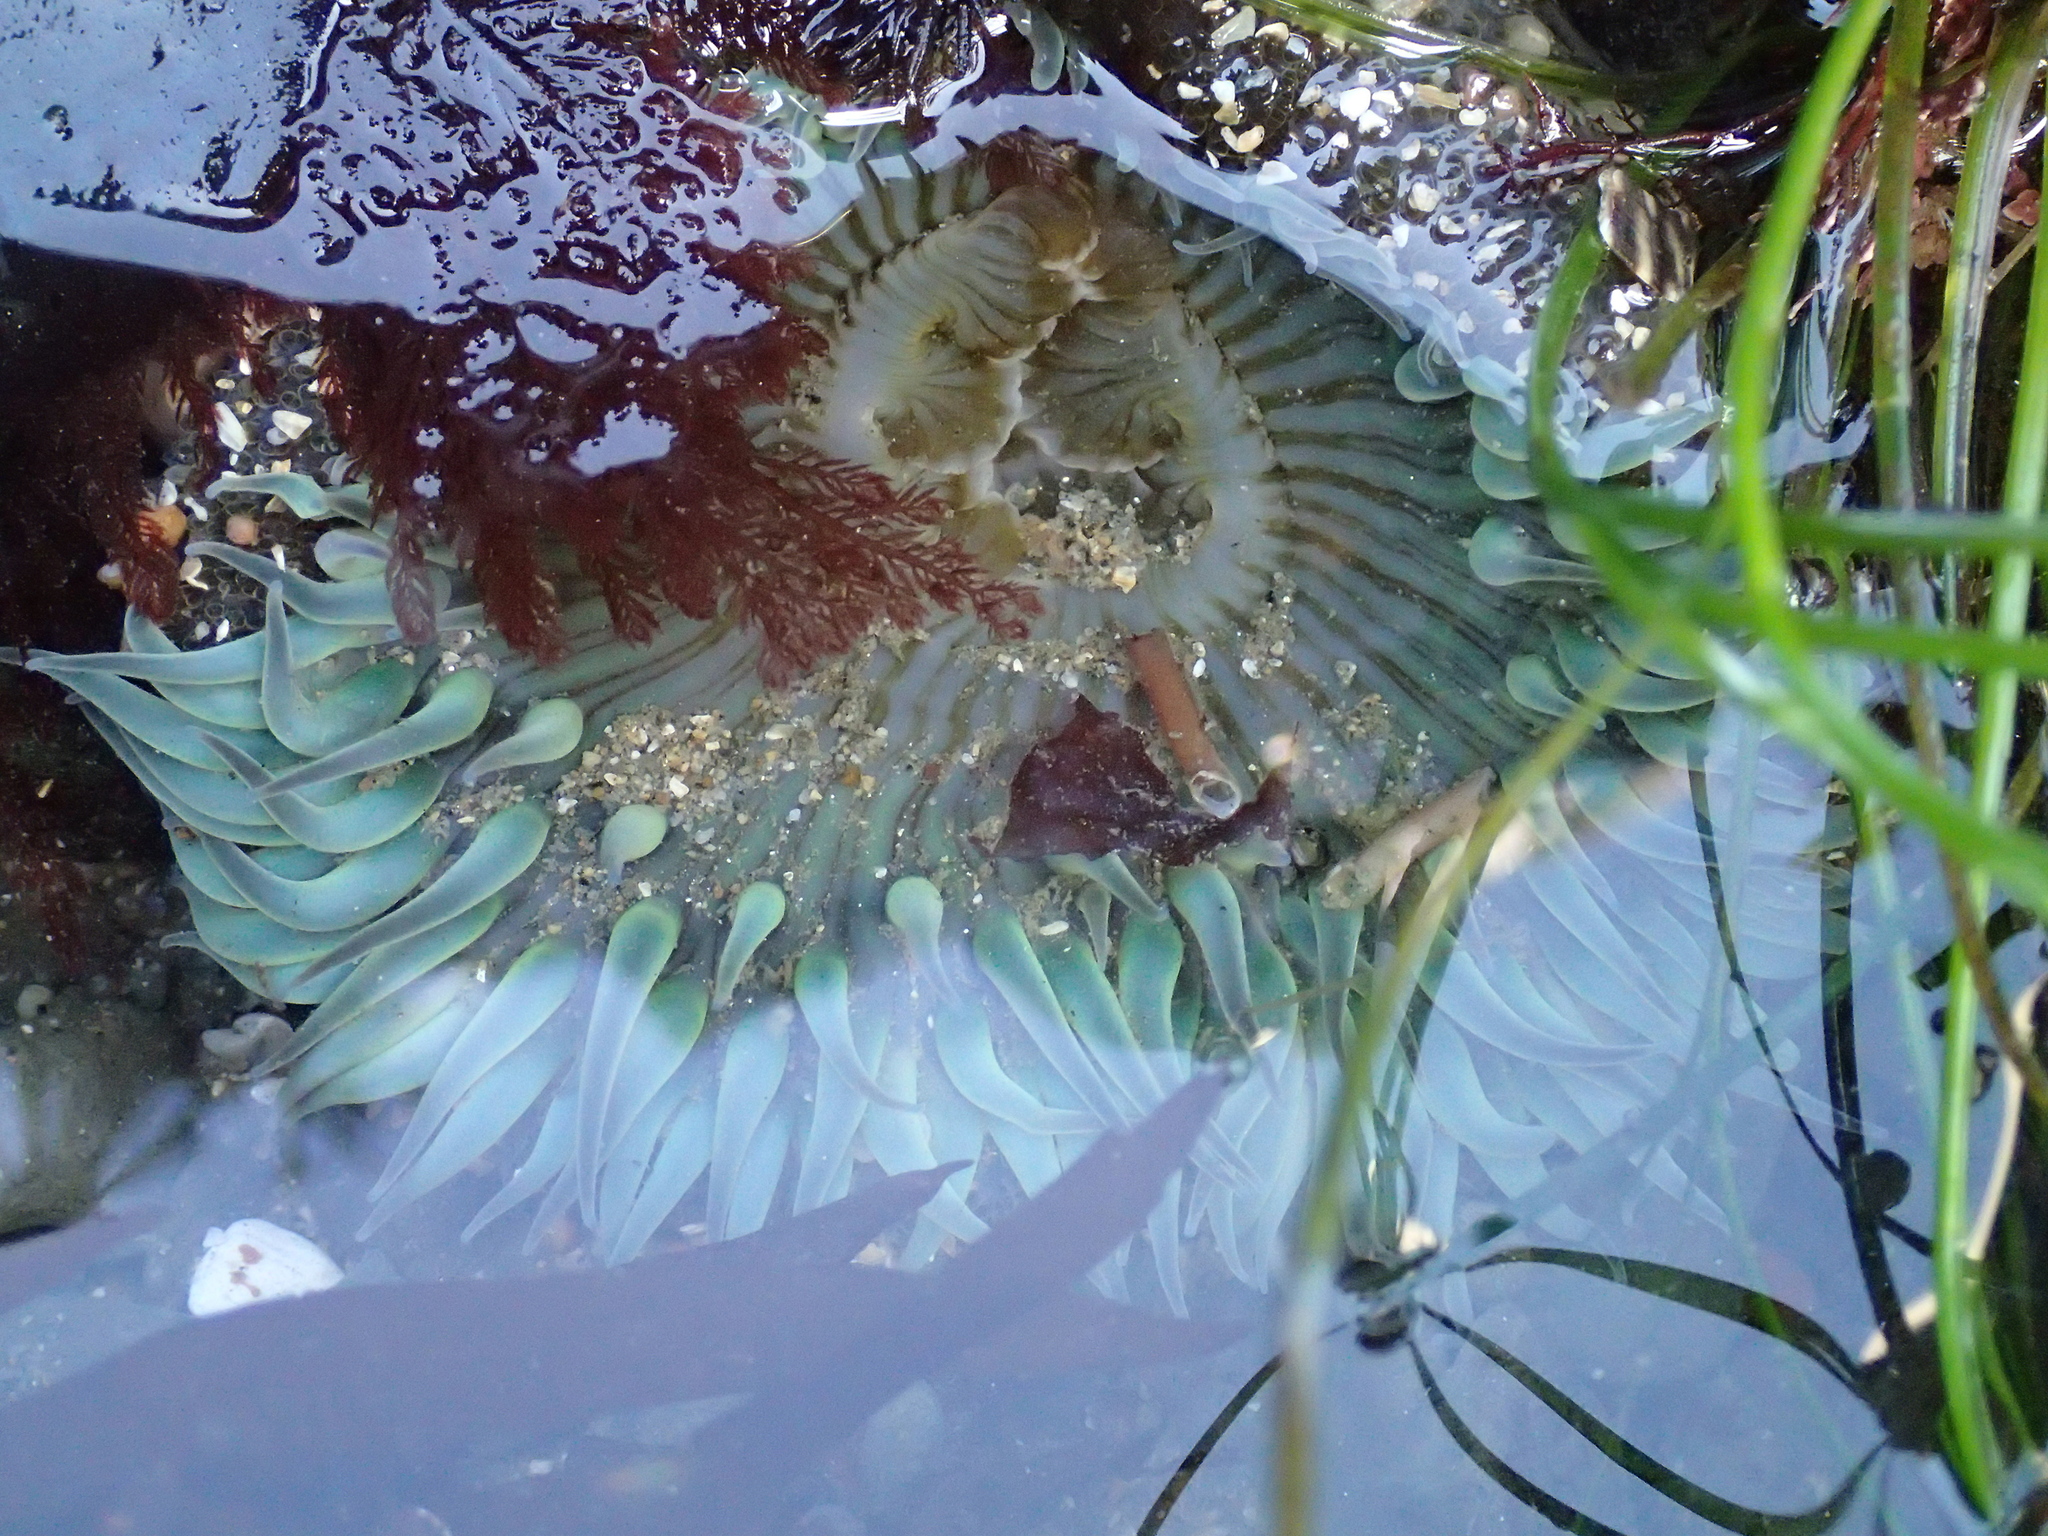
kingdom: Animalia
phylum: Cnidaria
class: Anthozoa
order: Actiniaria
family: Actiniidae
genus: Anthopleura
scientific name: Anthopleura sola
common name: Sun anemone
